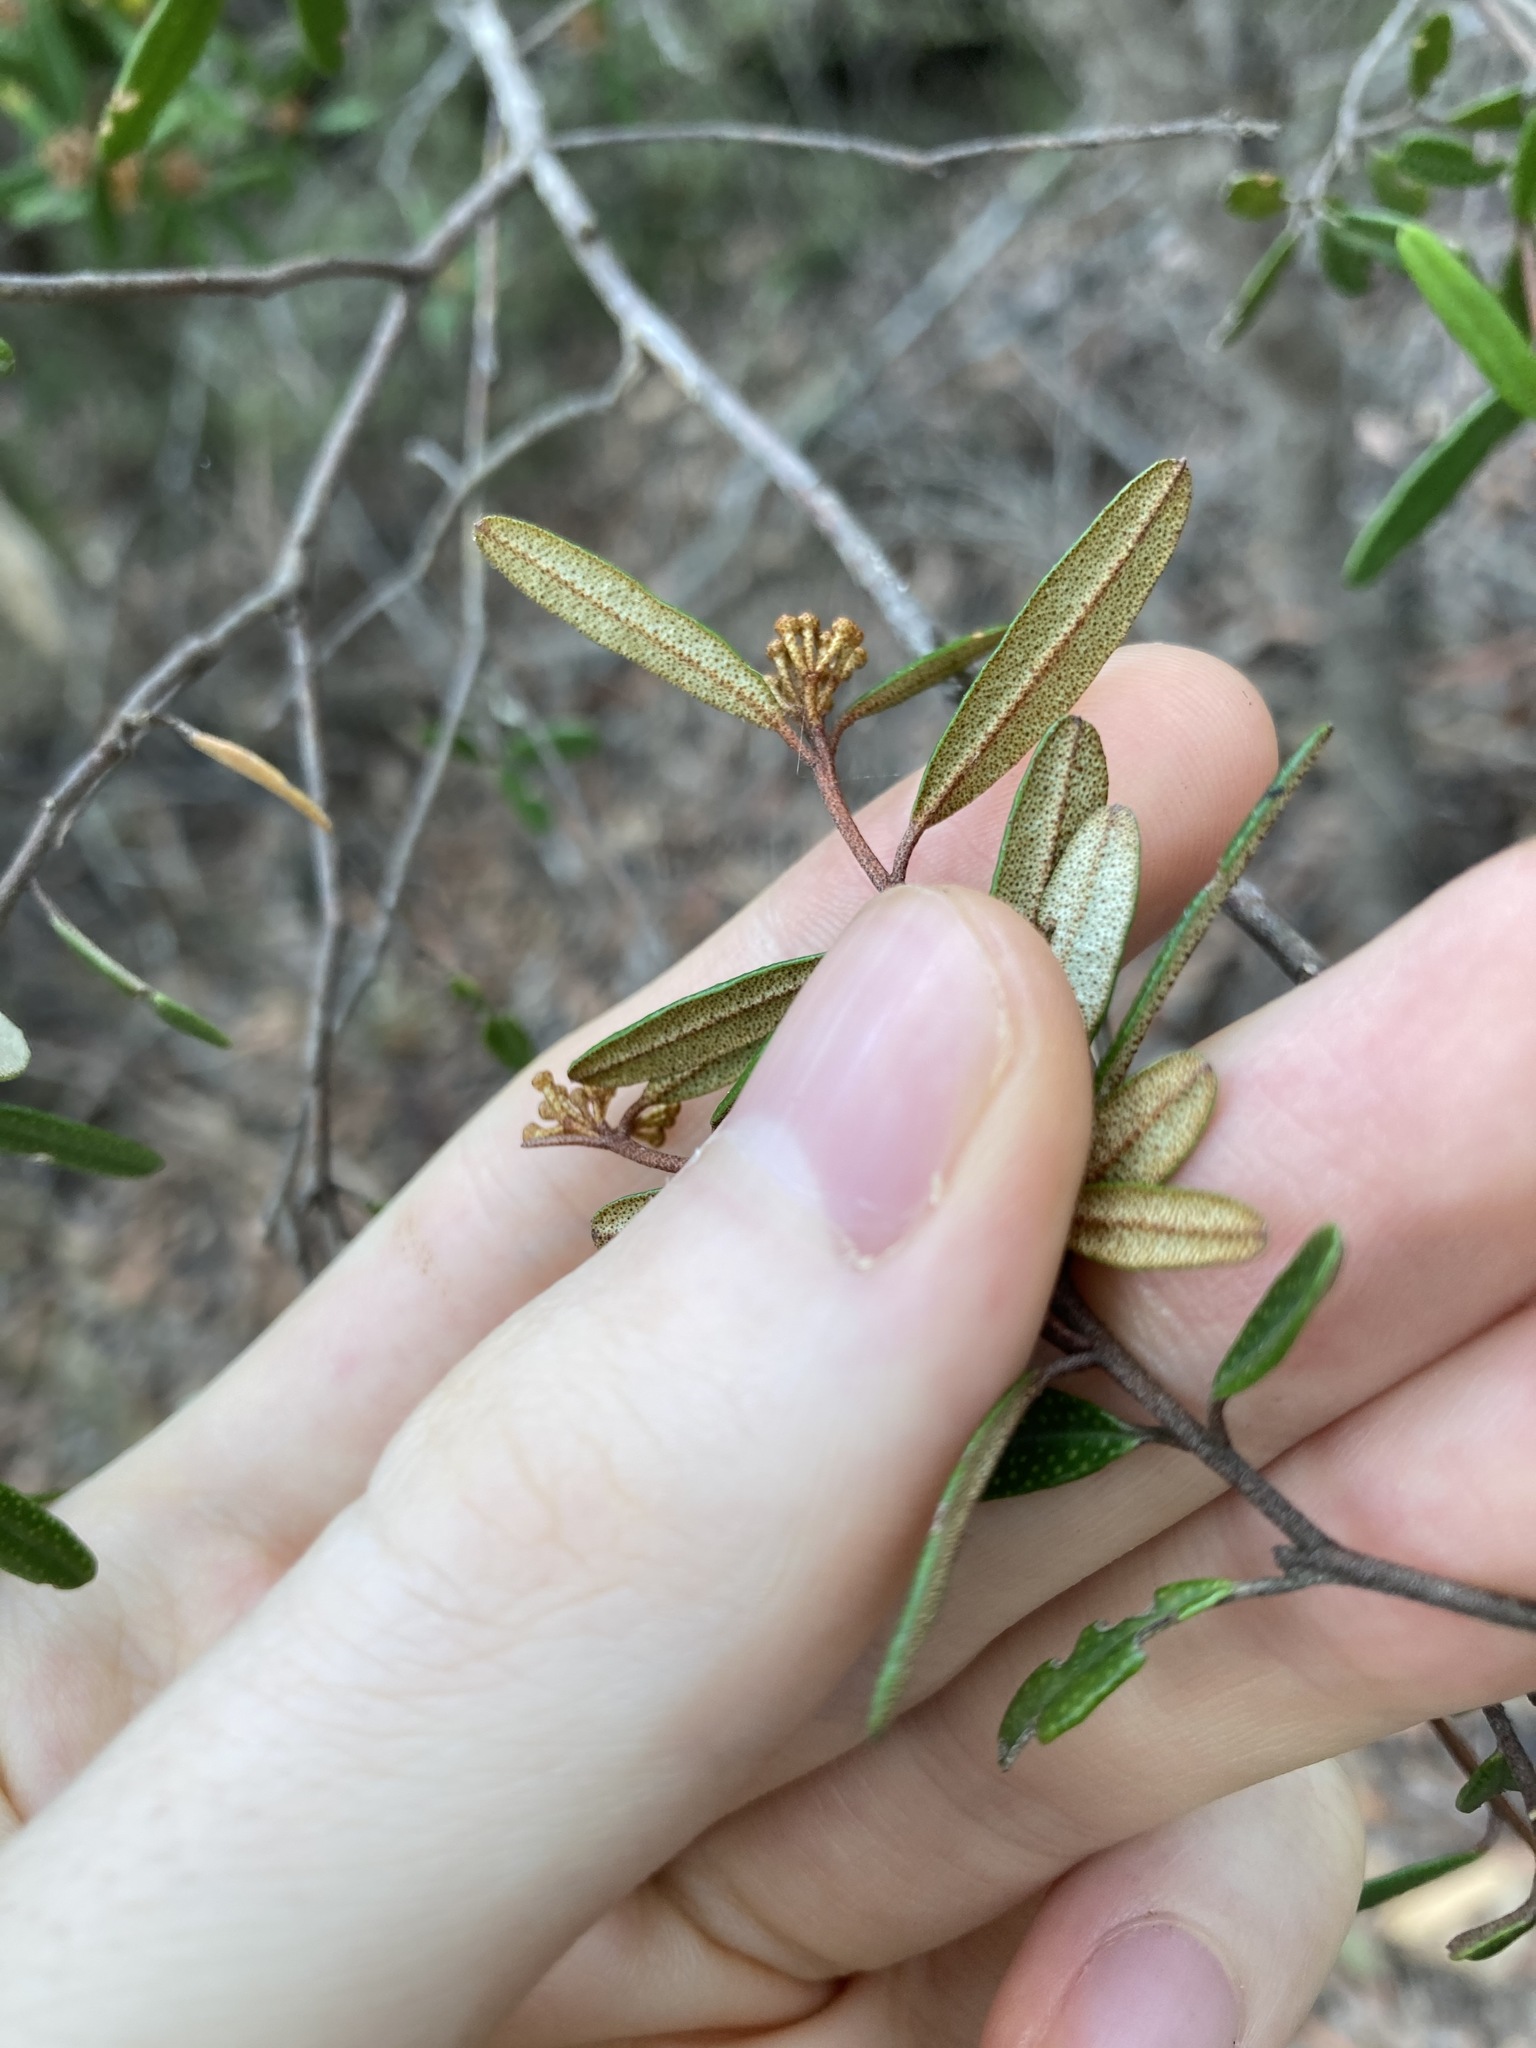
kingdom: Plantae
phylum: Tracheophyta
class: Magnoliopsida
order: Sapindales
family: Rutaceae
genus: Phebalium
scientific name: Phebalium squamulosum
